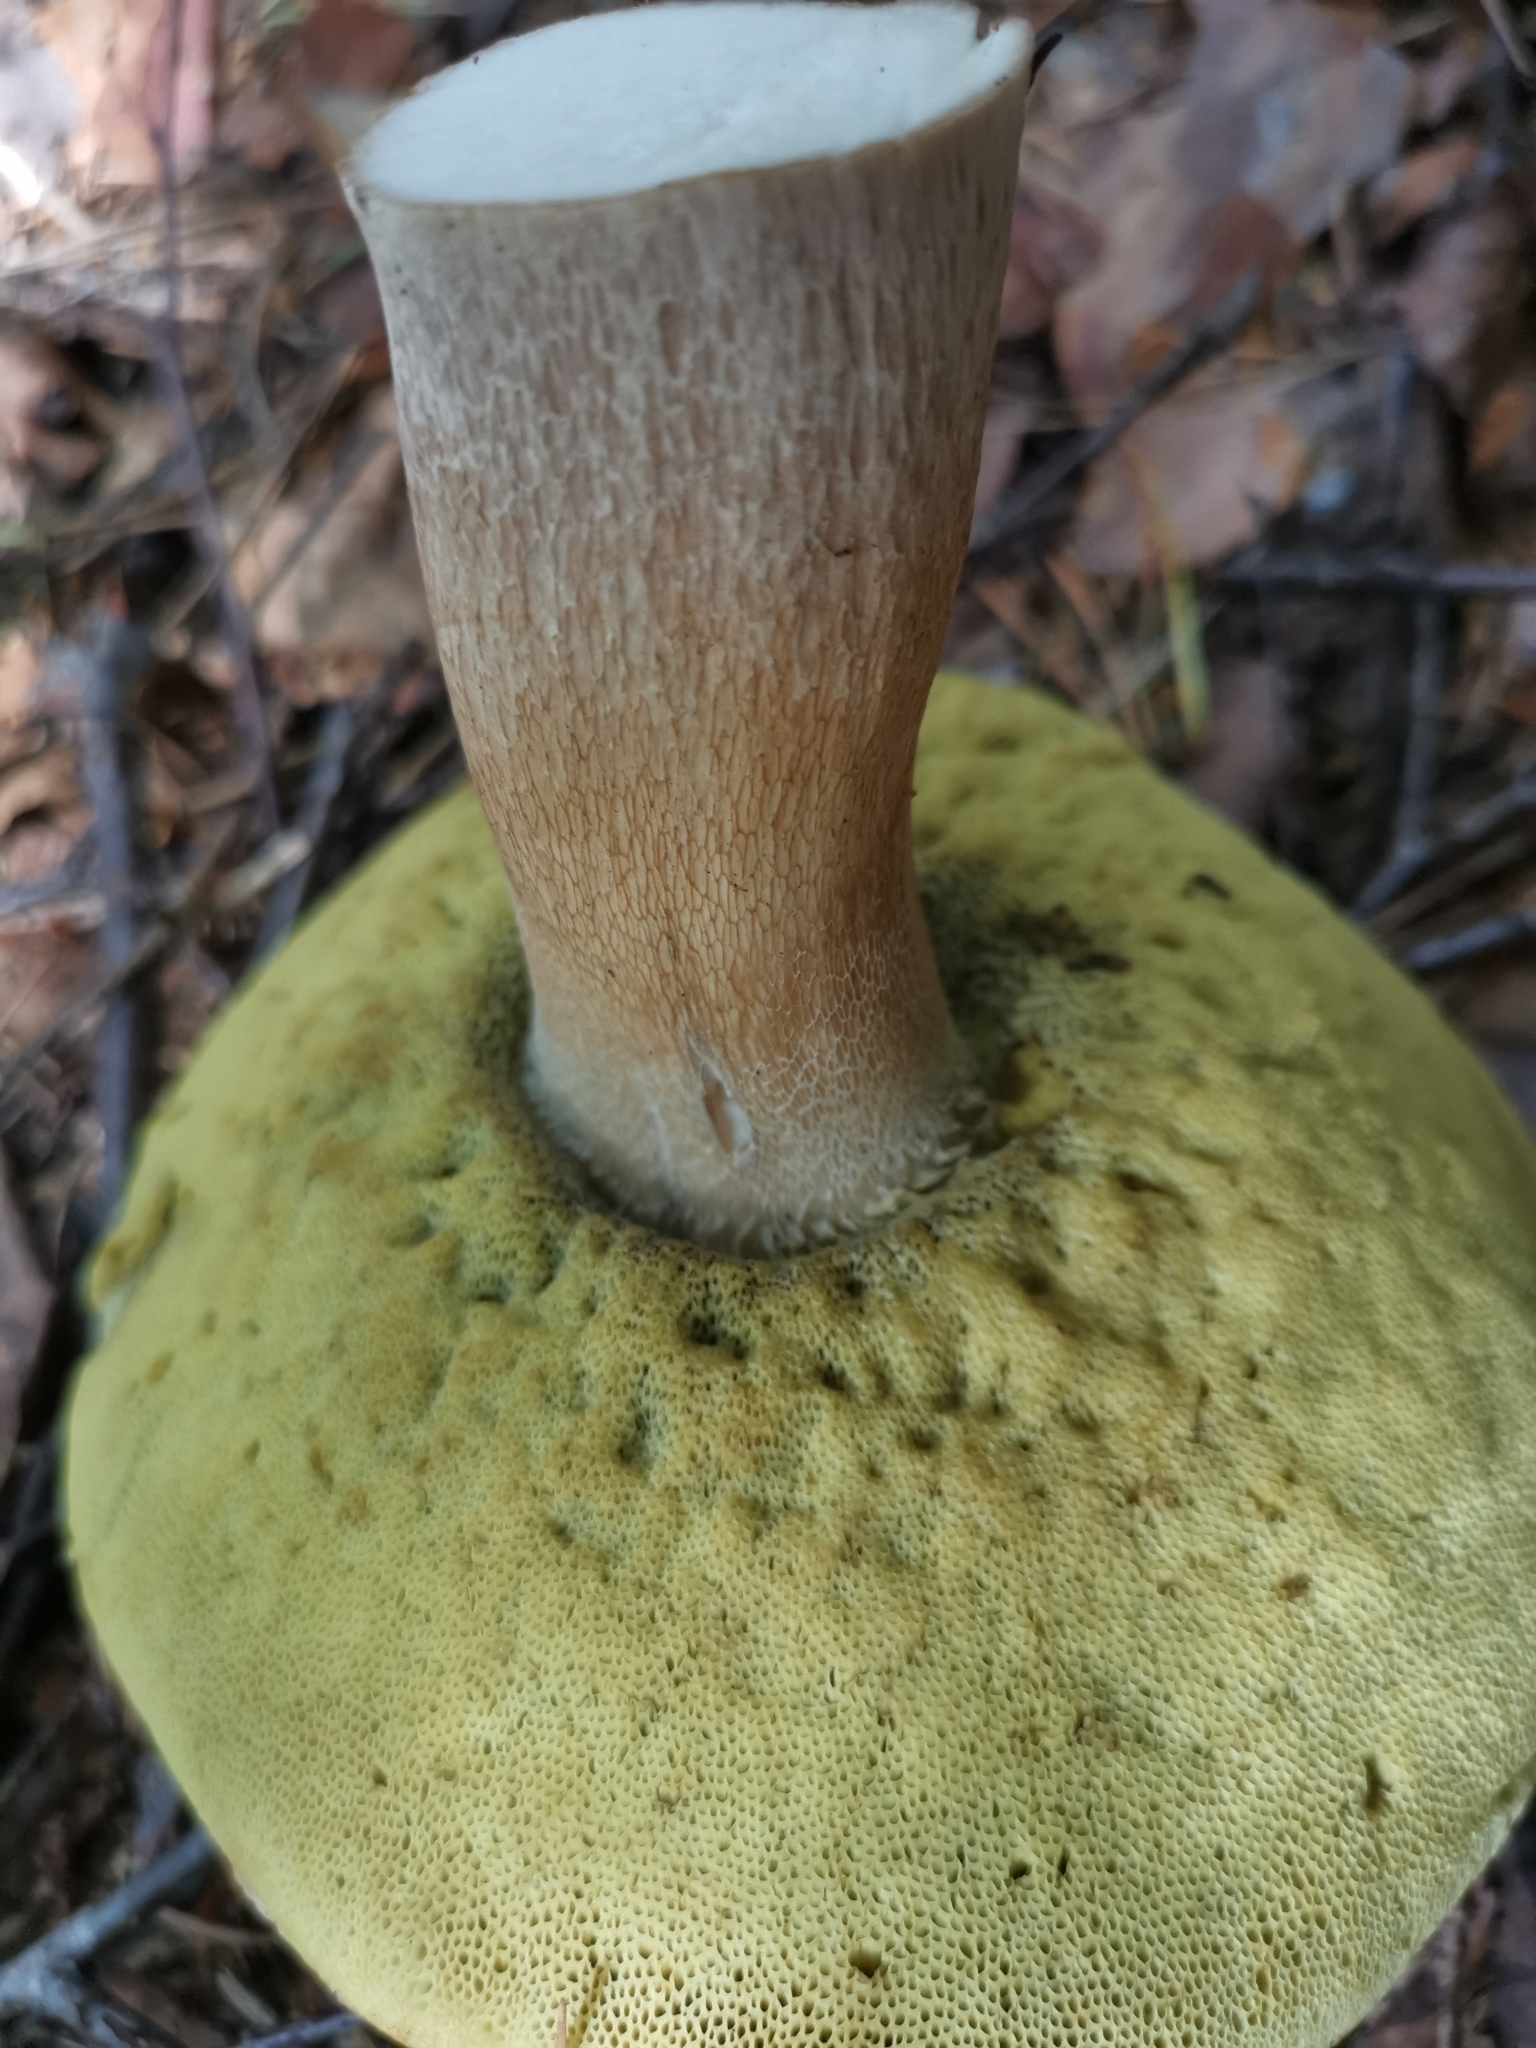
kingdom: Fungi
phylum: Basidiomycota
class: Agaricomycetes
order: Boletales
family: Boletaceae
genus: Boletus
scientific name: Boletus edulis
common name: Cep
